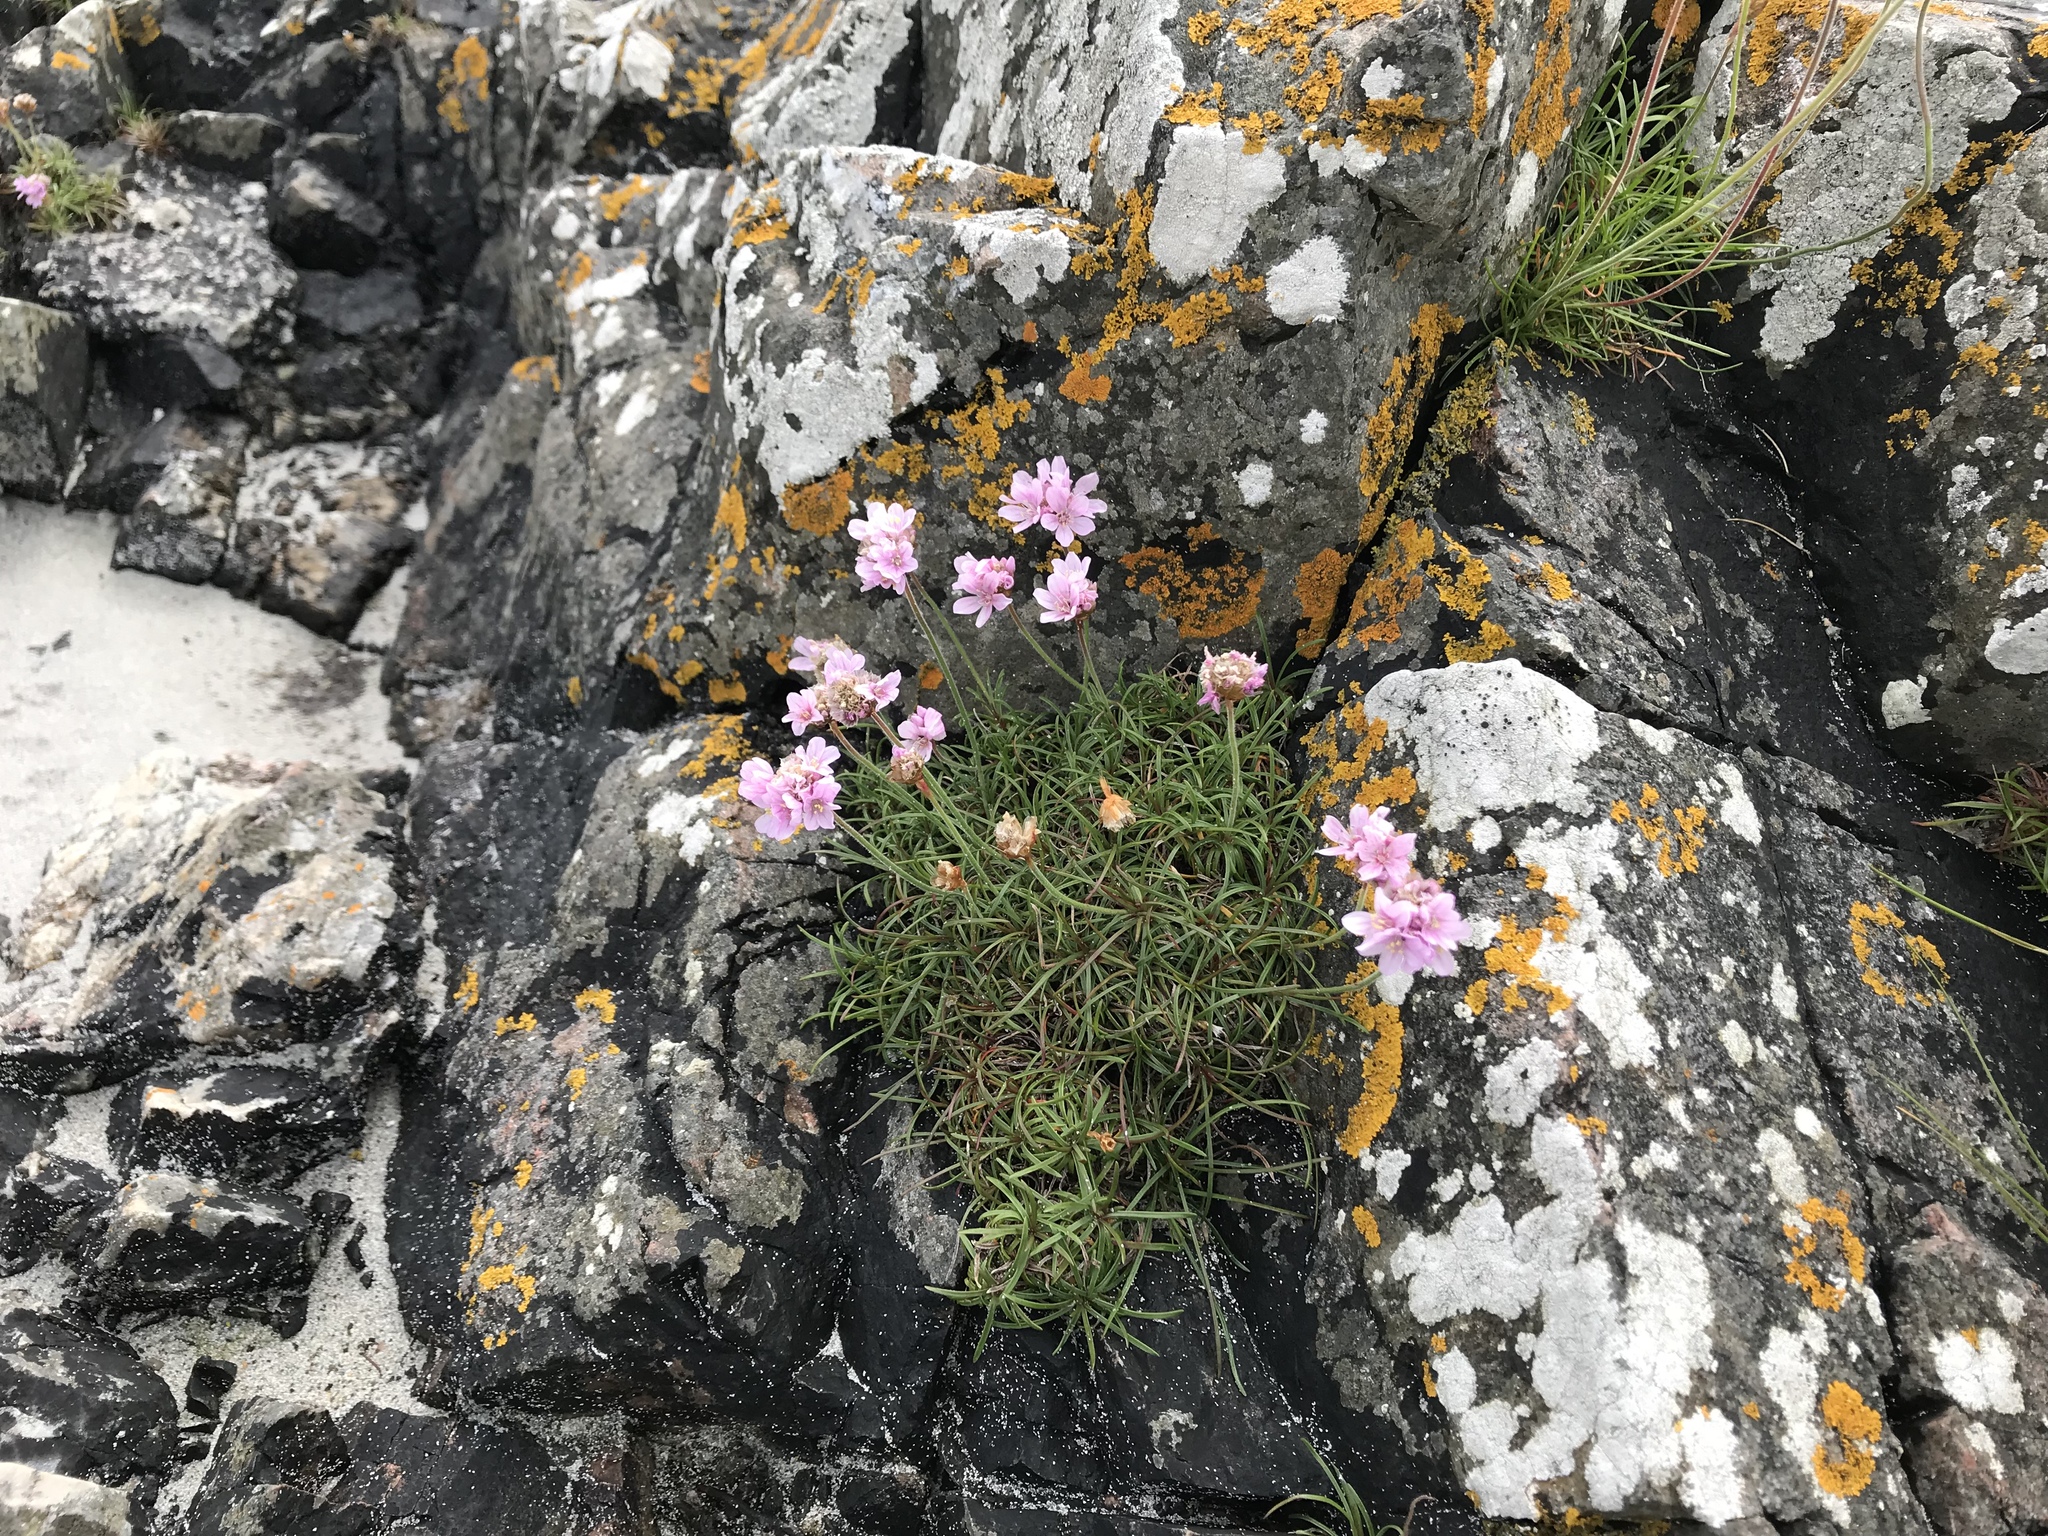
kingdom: Plantae
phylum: Tracheophyta
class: Magnoliopsida
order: Caryophyllales
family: Plumbaginaceae
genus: Armeria
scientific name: Armeria maritima
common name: Thrift
